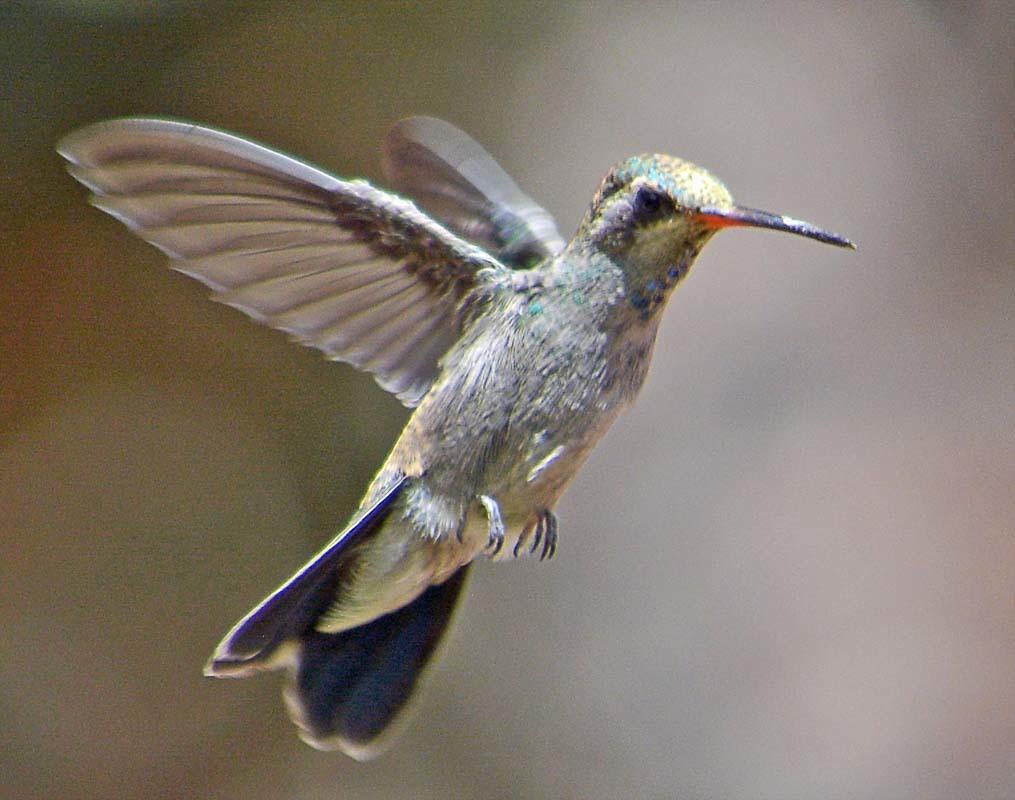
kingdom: Animalia
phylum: Chordata
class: Aves
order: Apodiformes
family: Trochilidae
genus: Cynanthus
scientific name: Cynanthus latirostris
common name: Broad-billed hummingbird
